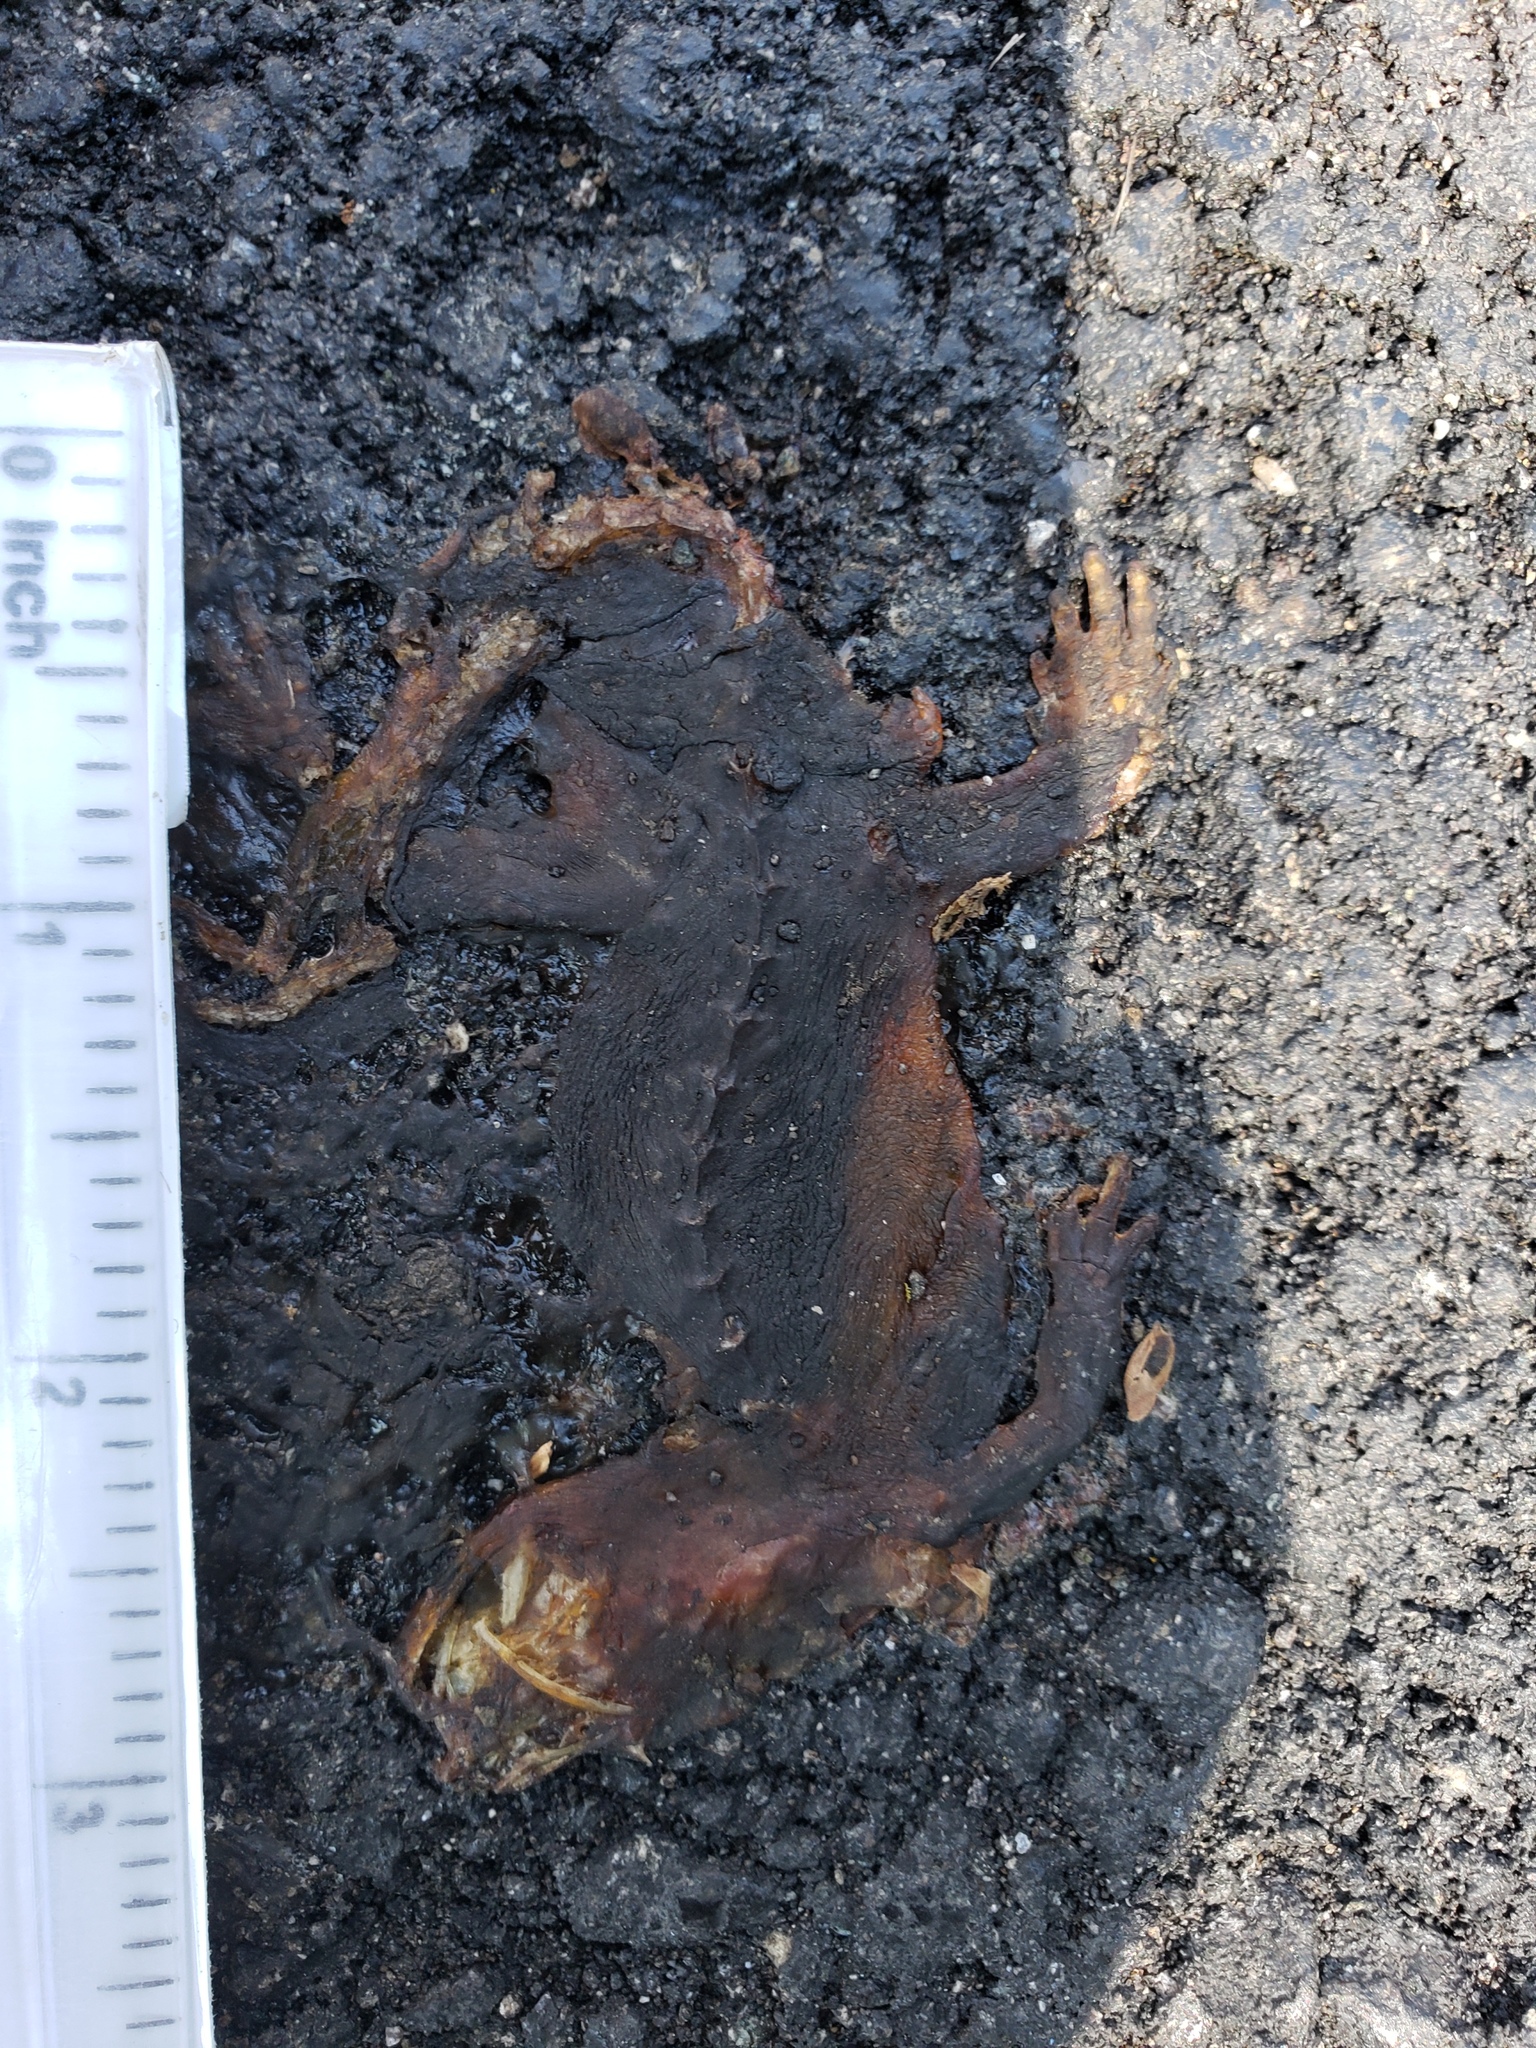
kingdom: Animalia
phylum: Chordata
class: Amphibia
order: Caudata
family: Salamandridae
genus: Taricha
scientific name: Taricha
